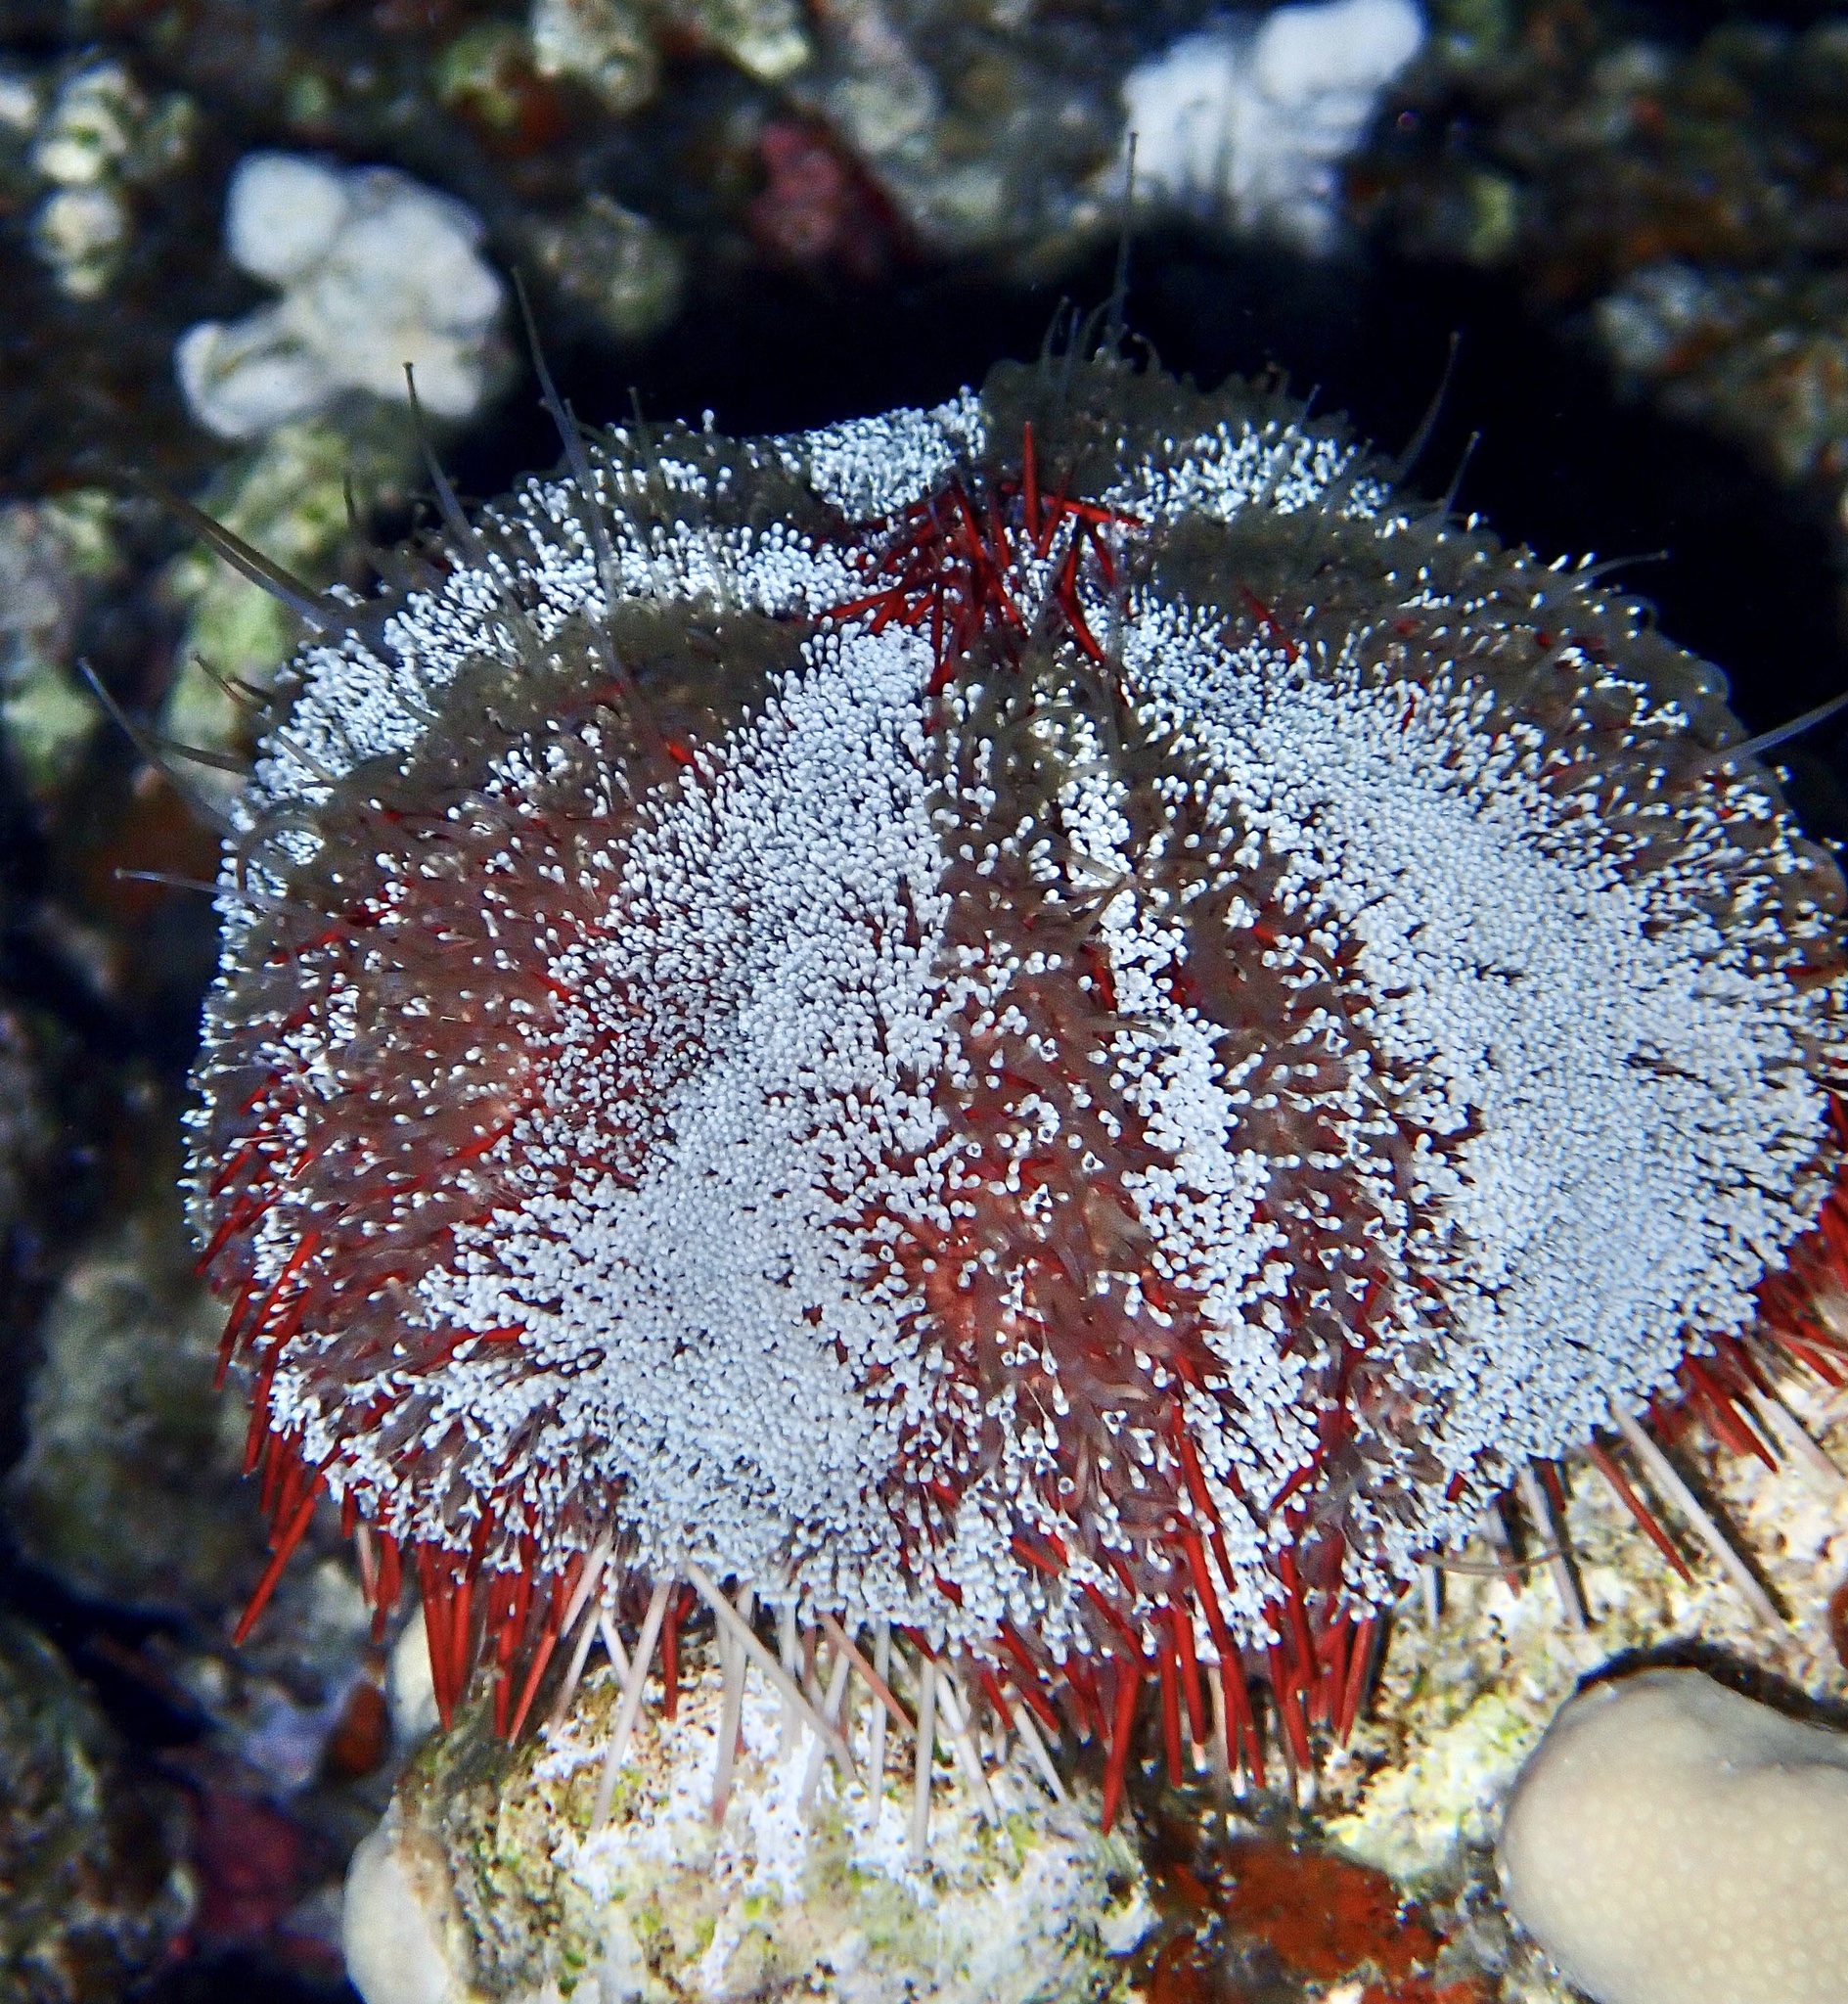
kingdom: Animalia
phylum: Echinodermata
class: Echinoidea
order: Camarodonta
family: Toxopneustidae
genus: Tripneustes
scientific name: Tripneustes gratilla
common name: Bischofsmützenseeigel
